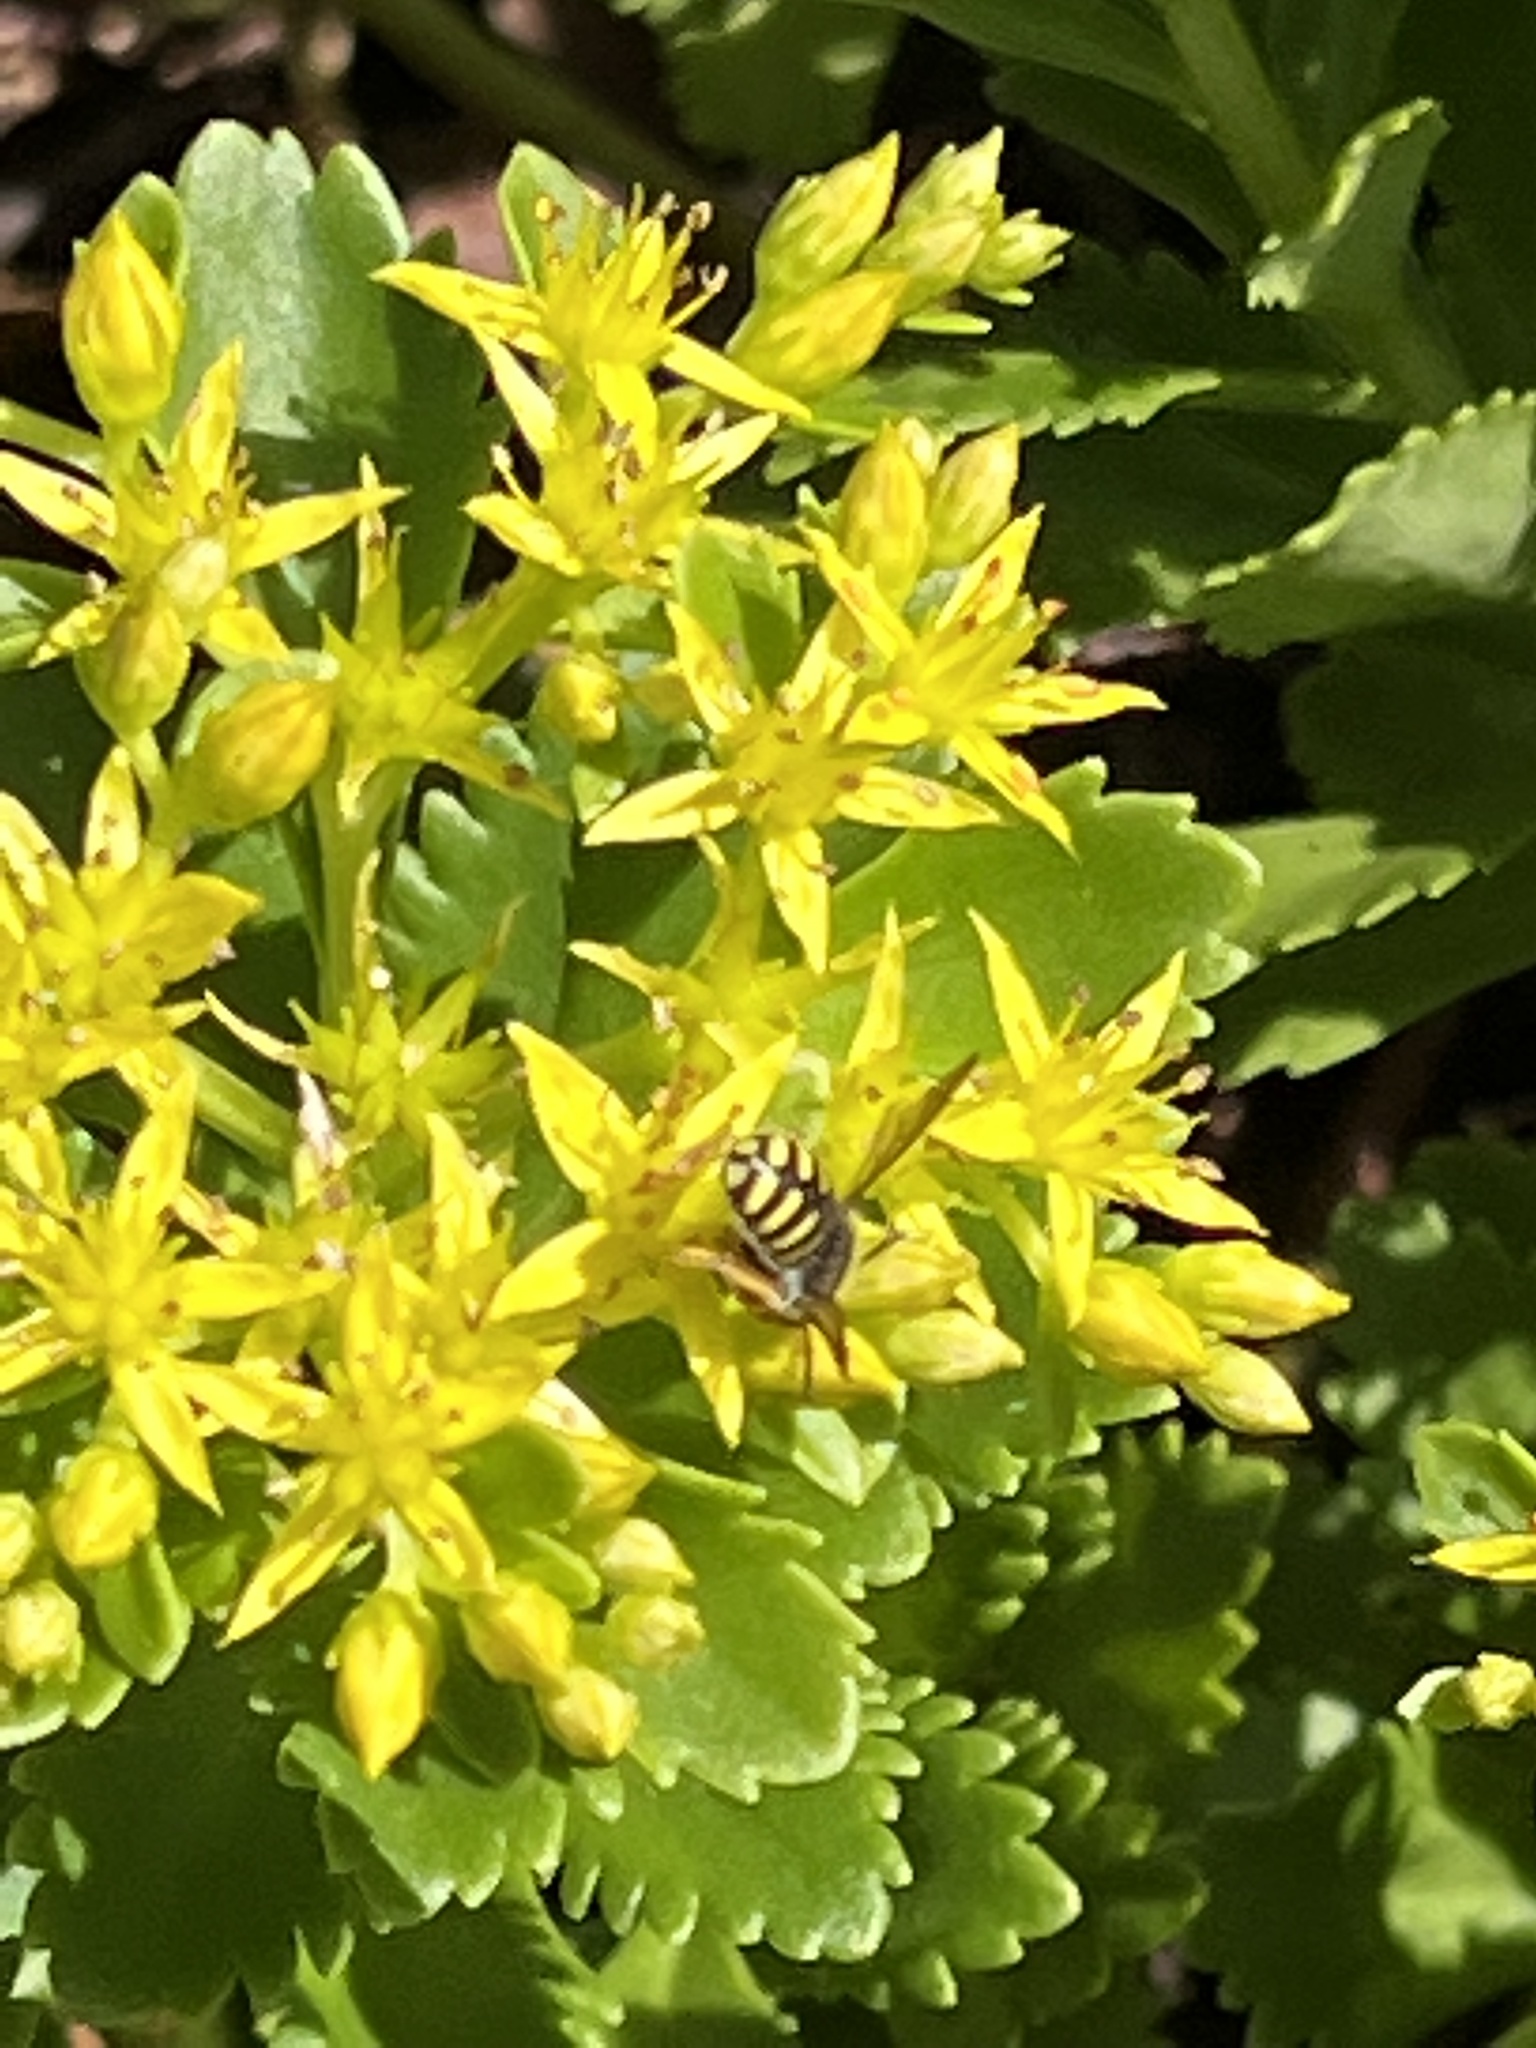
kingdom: Animalia
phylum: Arthropoda
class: Insecta
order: Hymenoptera
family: Megachilidae
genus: Anthidium
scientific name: Anthidium oblongatum
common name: Oblong wool carder bee
